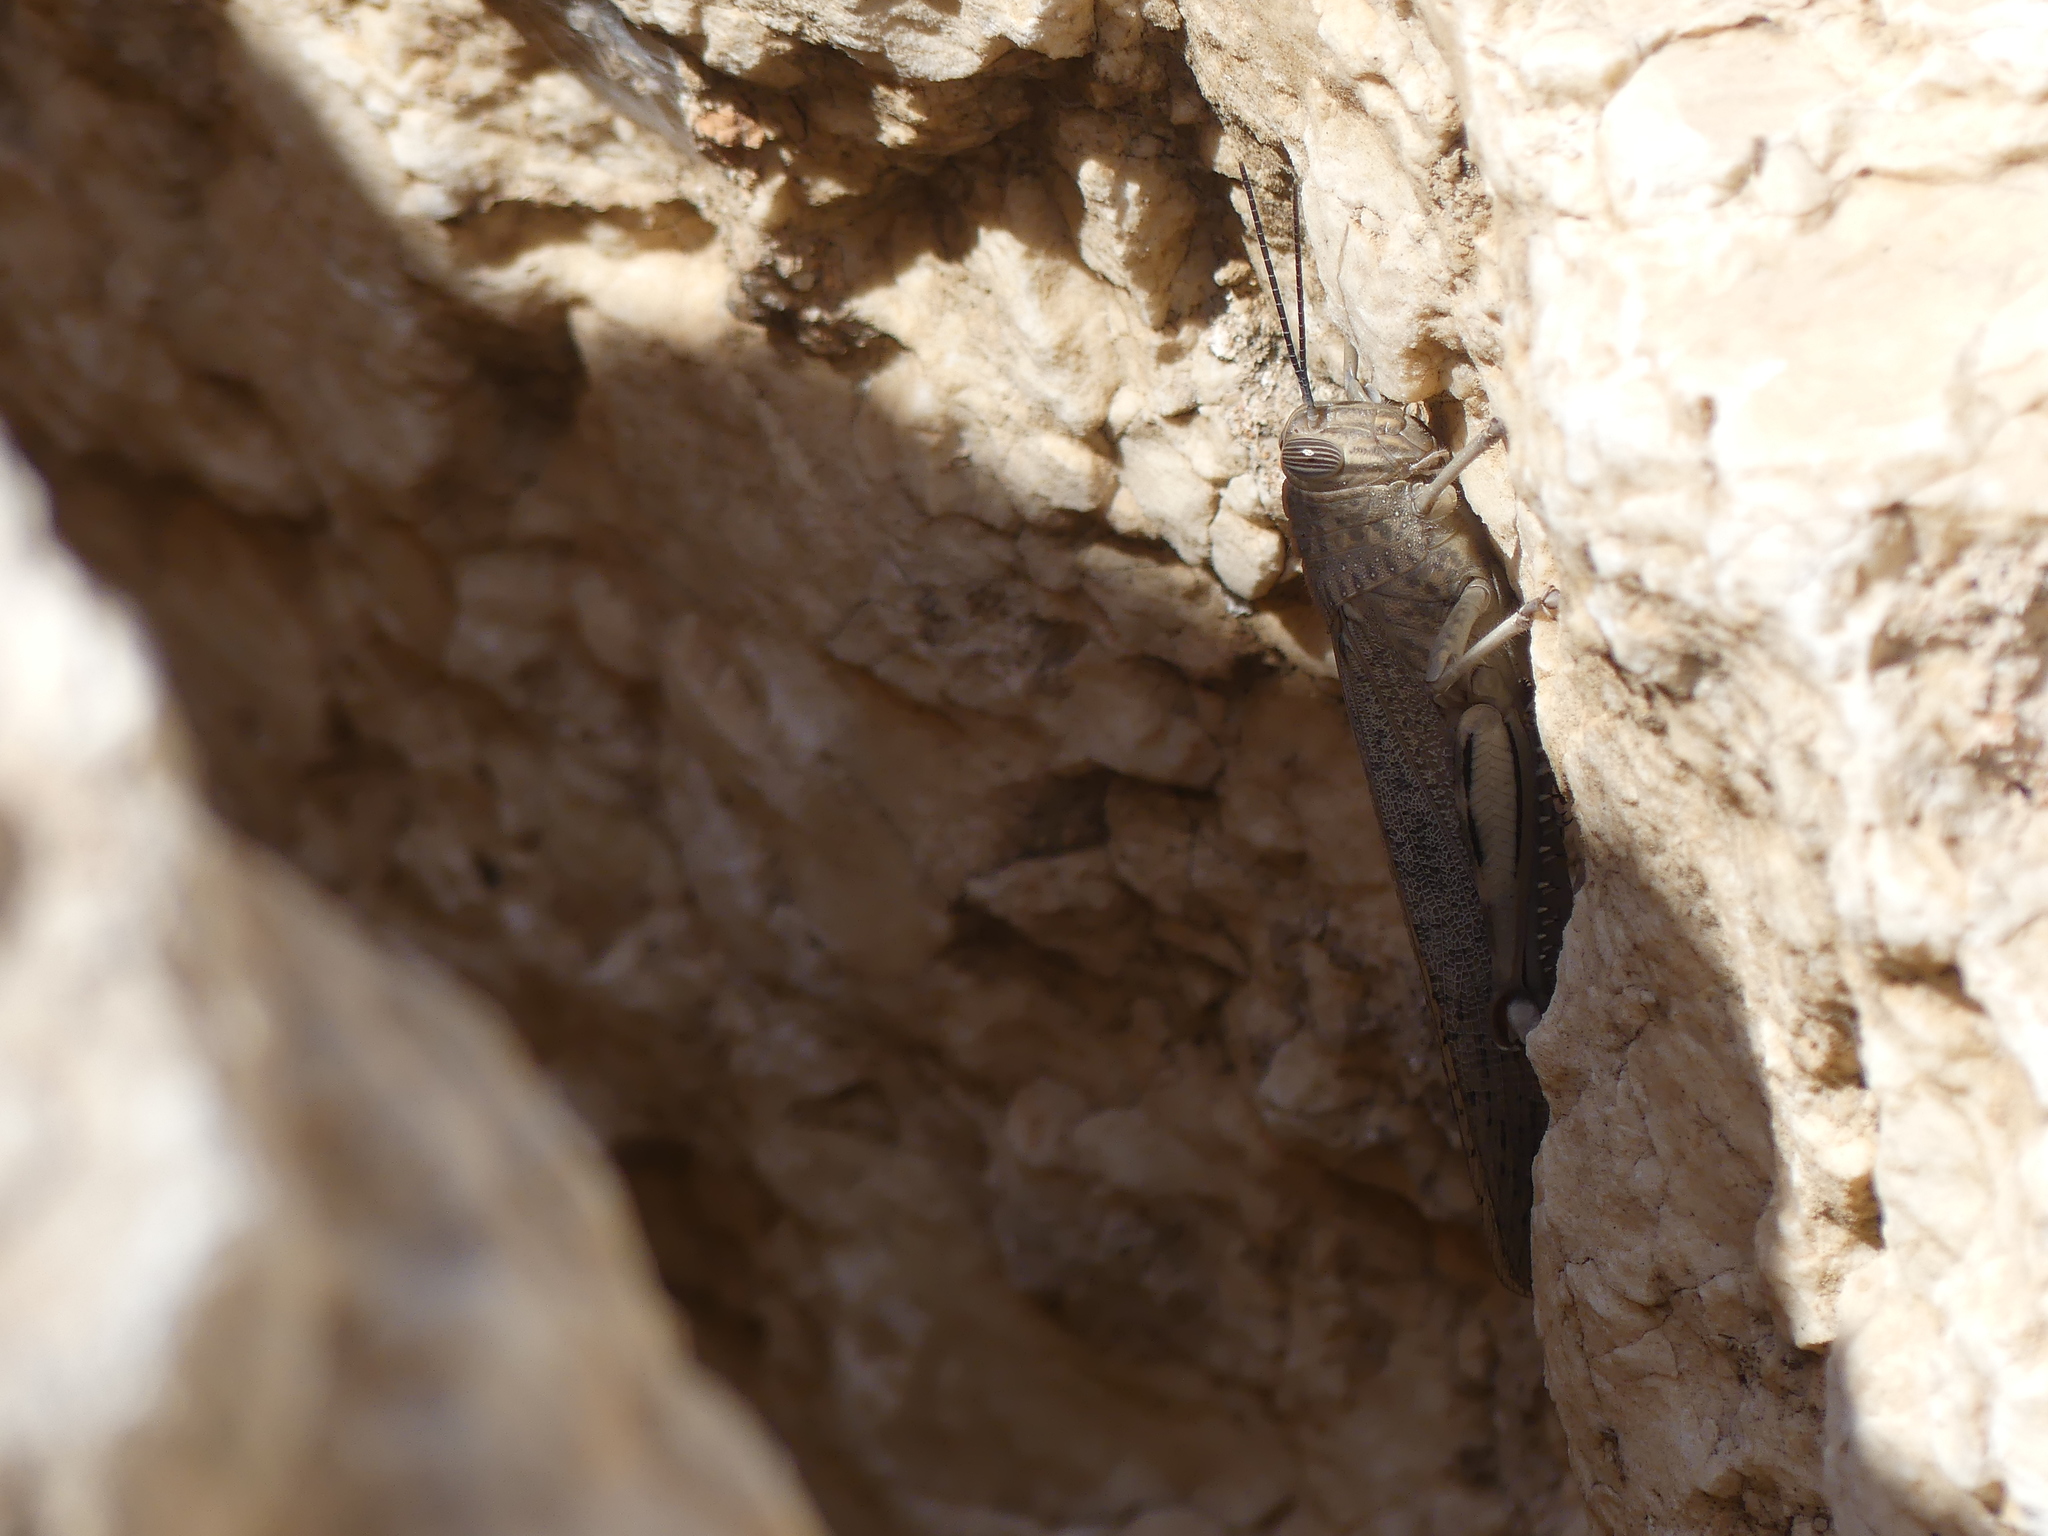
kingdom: Animalia
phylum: Arthropoda
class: Insecta
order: Orthoptera
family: Acrididae
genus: Anacridium
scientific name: Anacridium aegyptium
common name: Egyptian grasshopper
